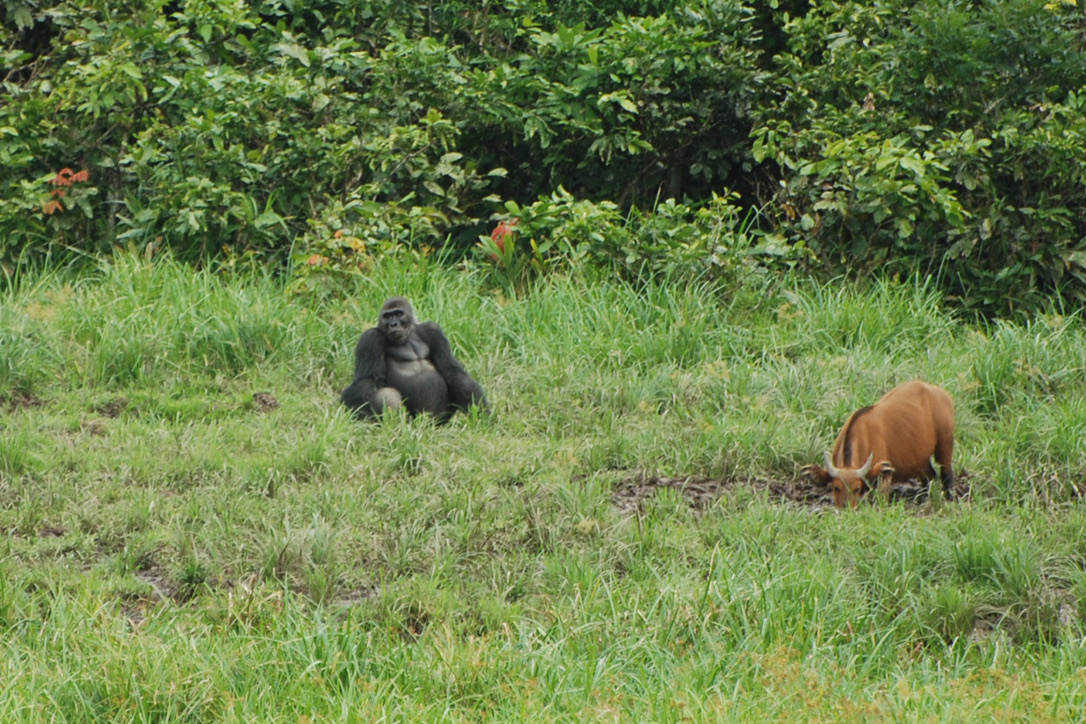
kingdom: Animalia
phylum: Chordata
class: Mammalia
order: Primates
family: Hominidae
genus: Gorilla
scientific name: Gorilla gorilla
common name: Western gorilla
